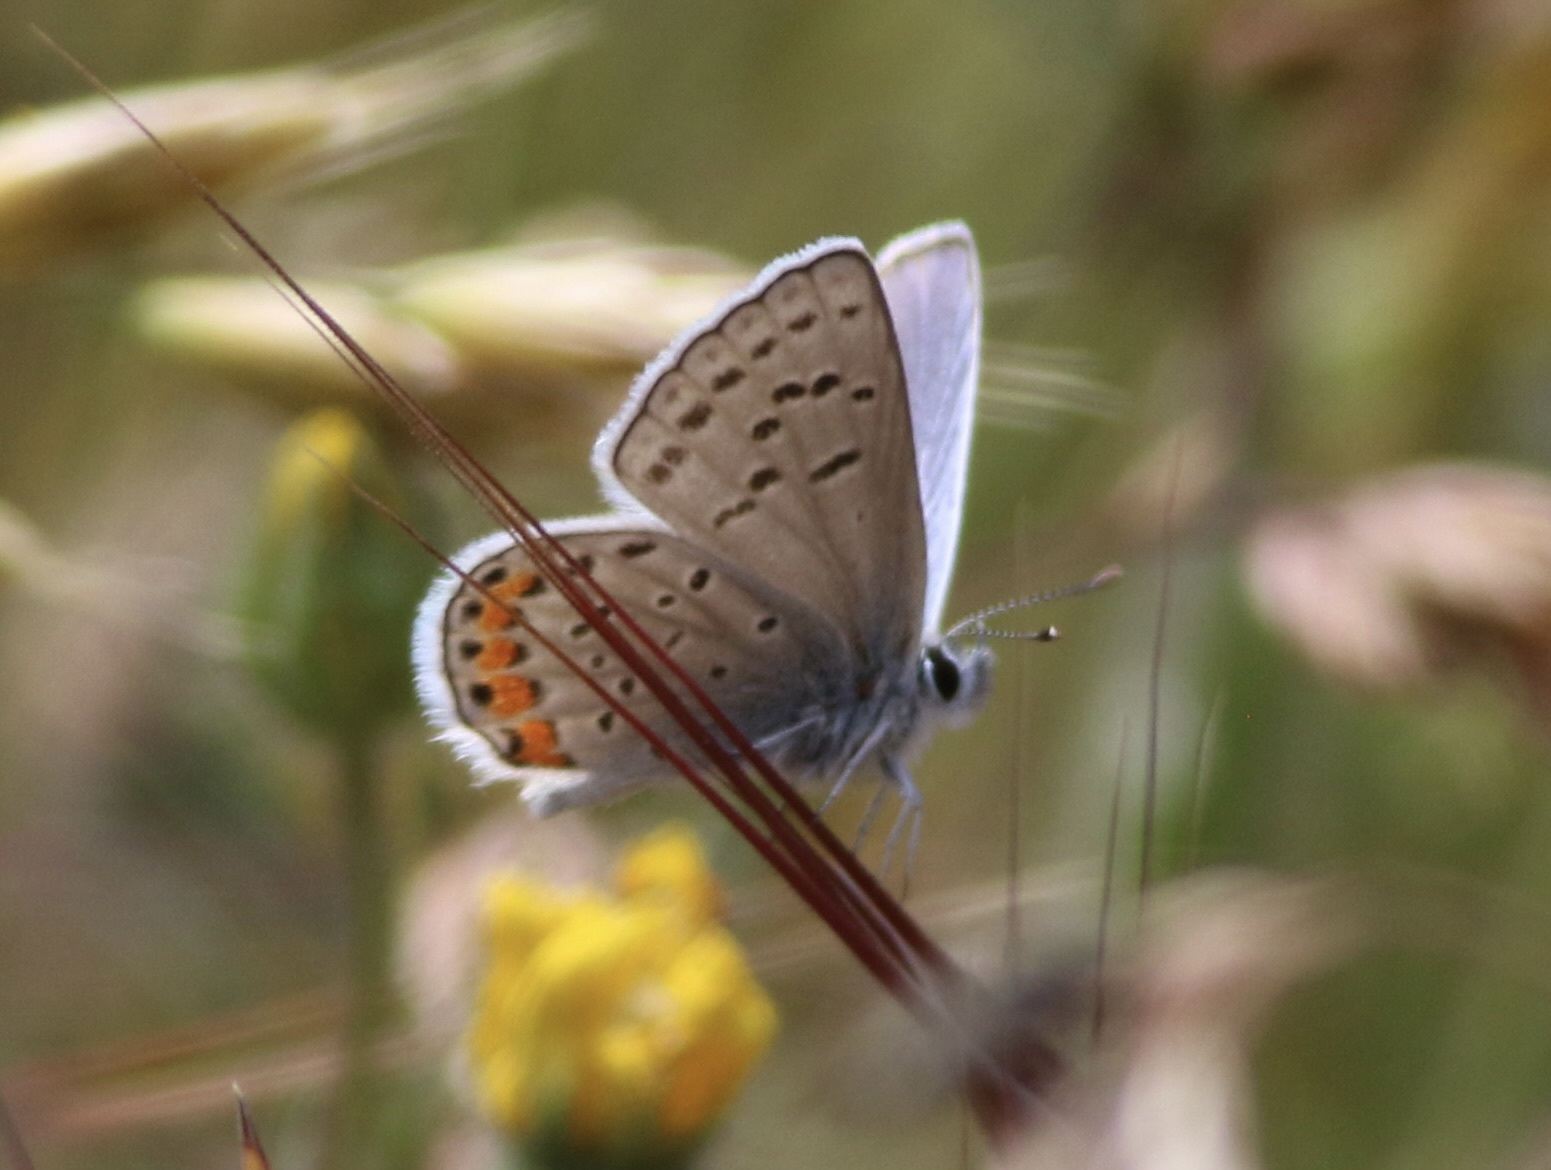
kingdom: Animalia
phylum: Arthropoda
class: Insecta
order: Lepidoptera
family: Lycaenidae
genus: Icaricia
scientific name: Icaricia acmon
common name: Acmon blue
